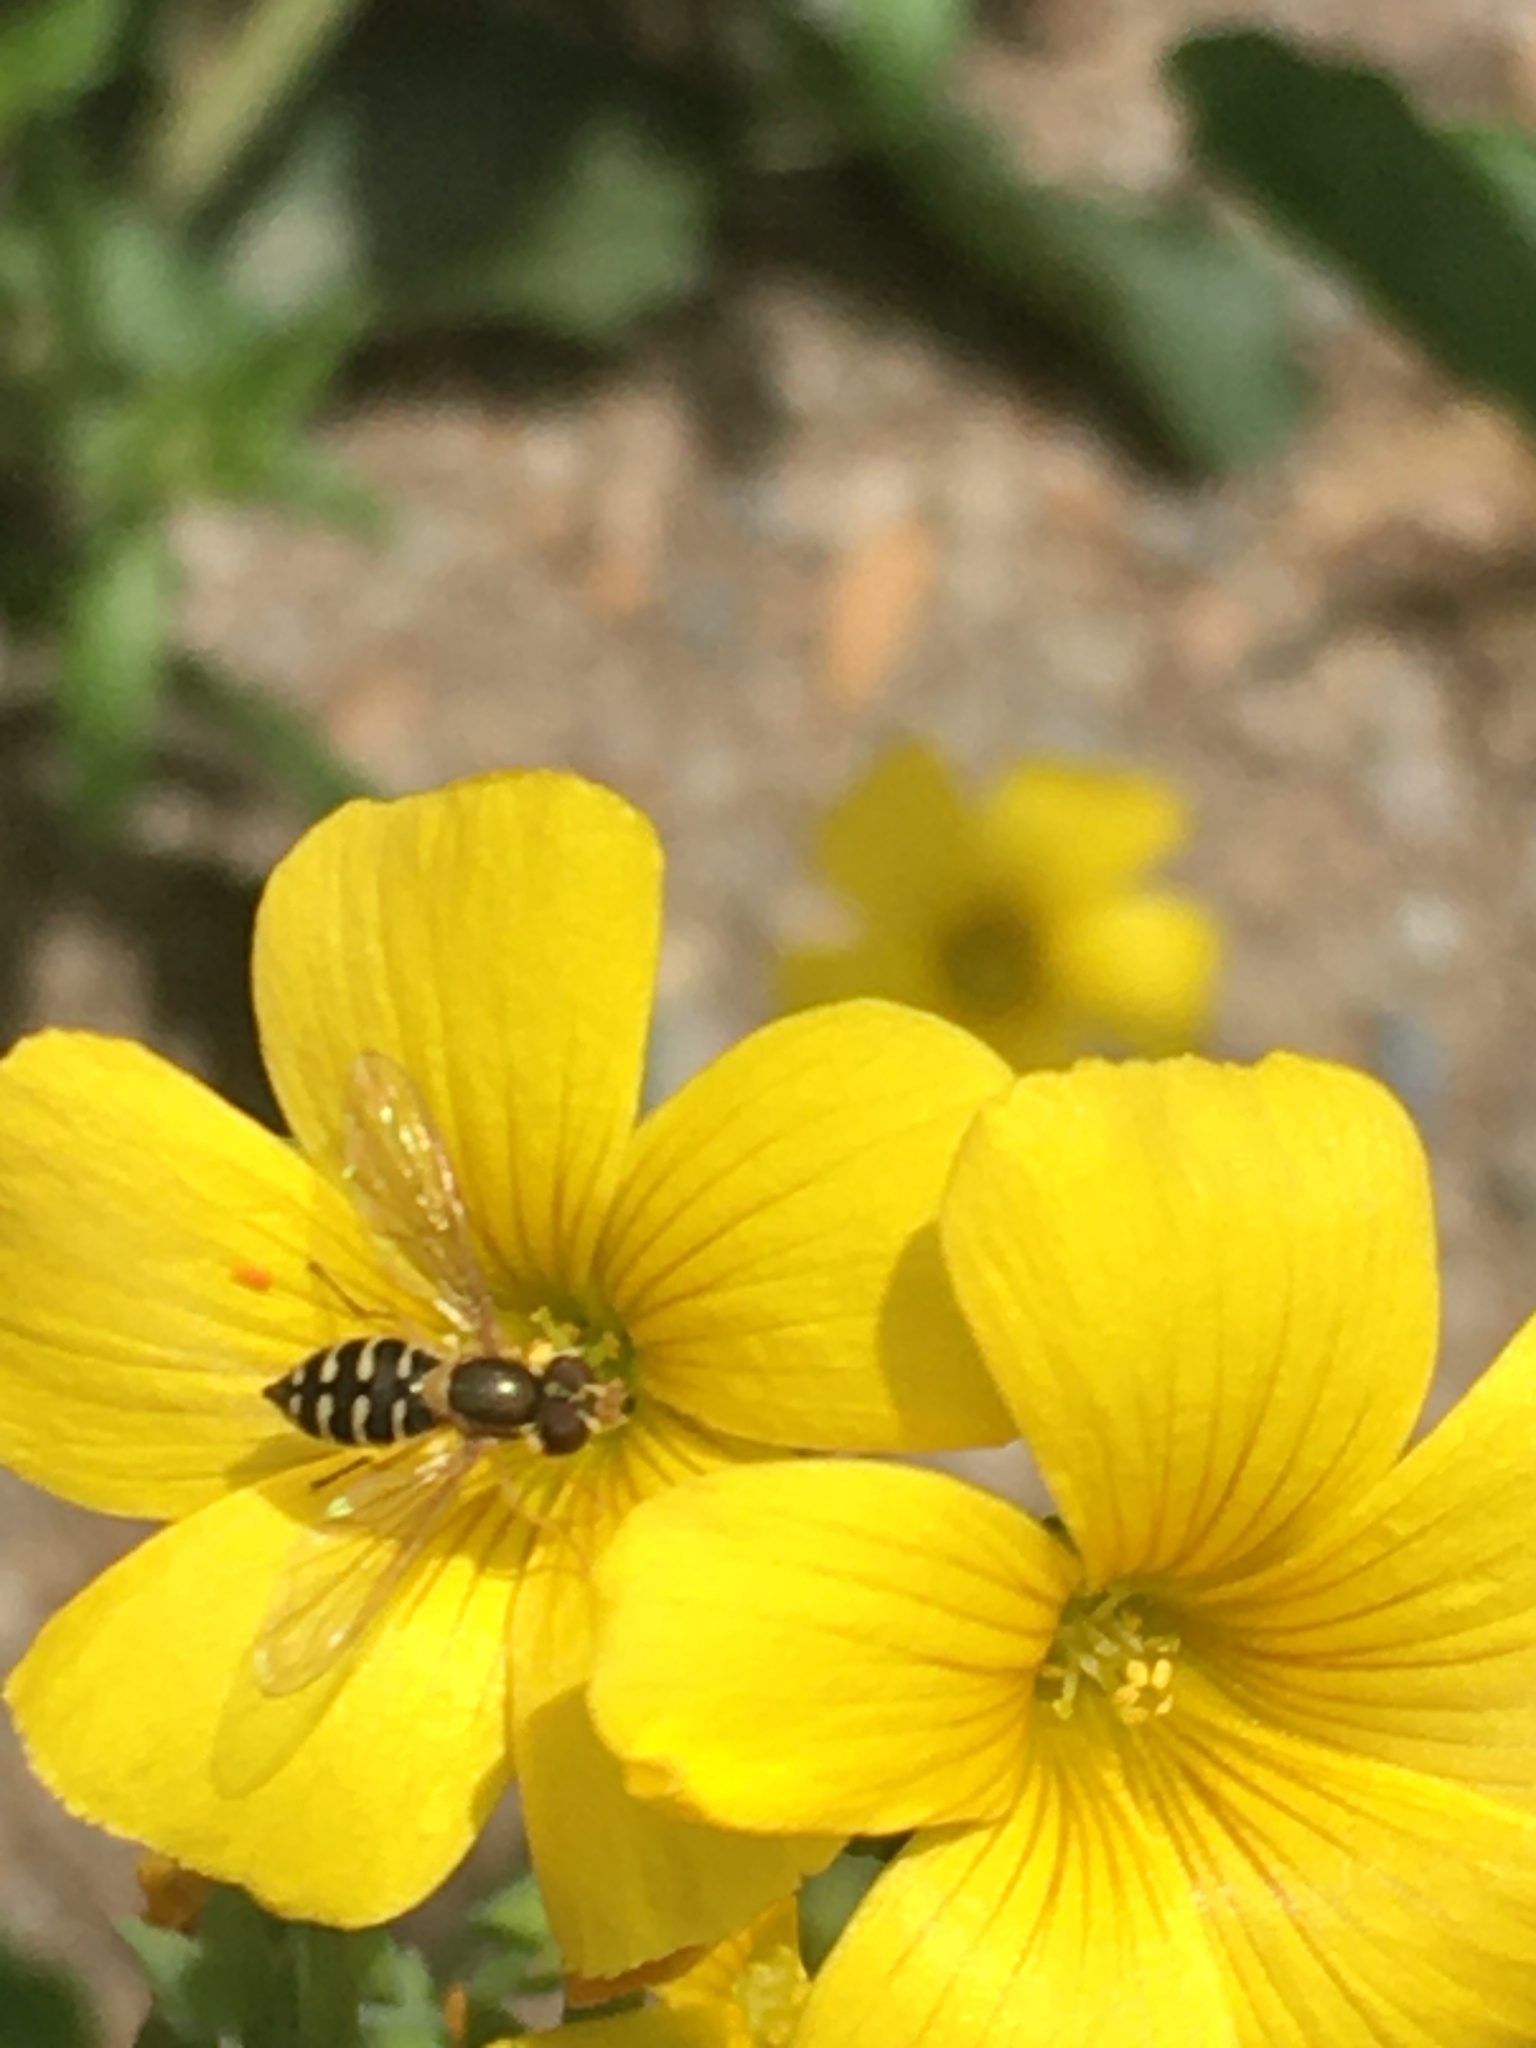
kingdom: Animalia
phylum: Arthropoda
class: Insecta
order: Diptera
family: Syrphidae
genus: Toxomerus
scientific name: Toxomerus vertebratus
